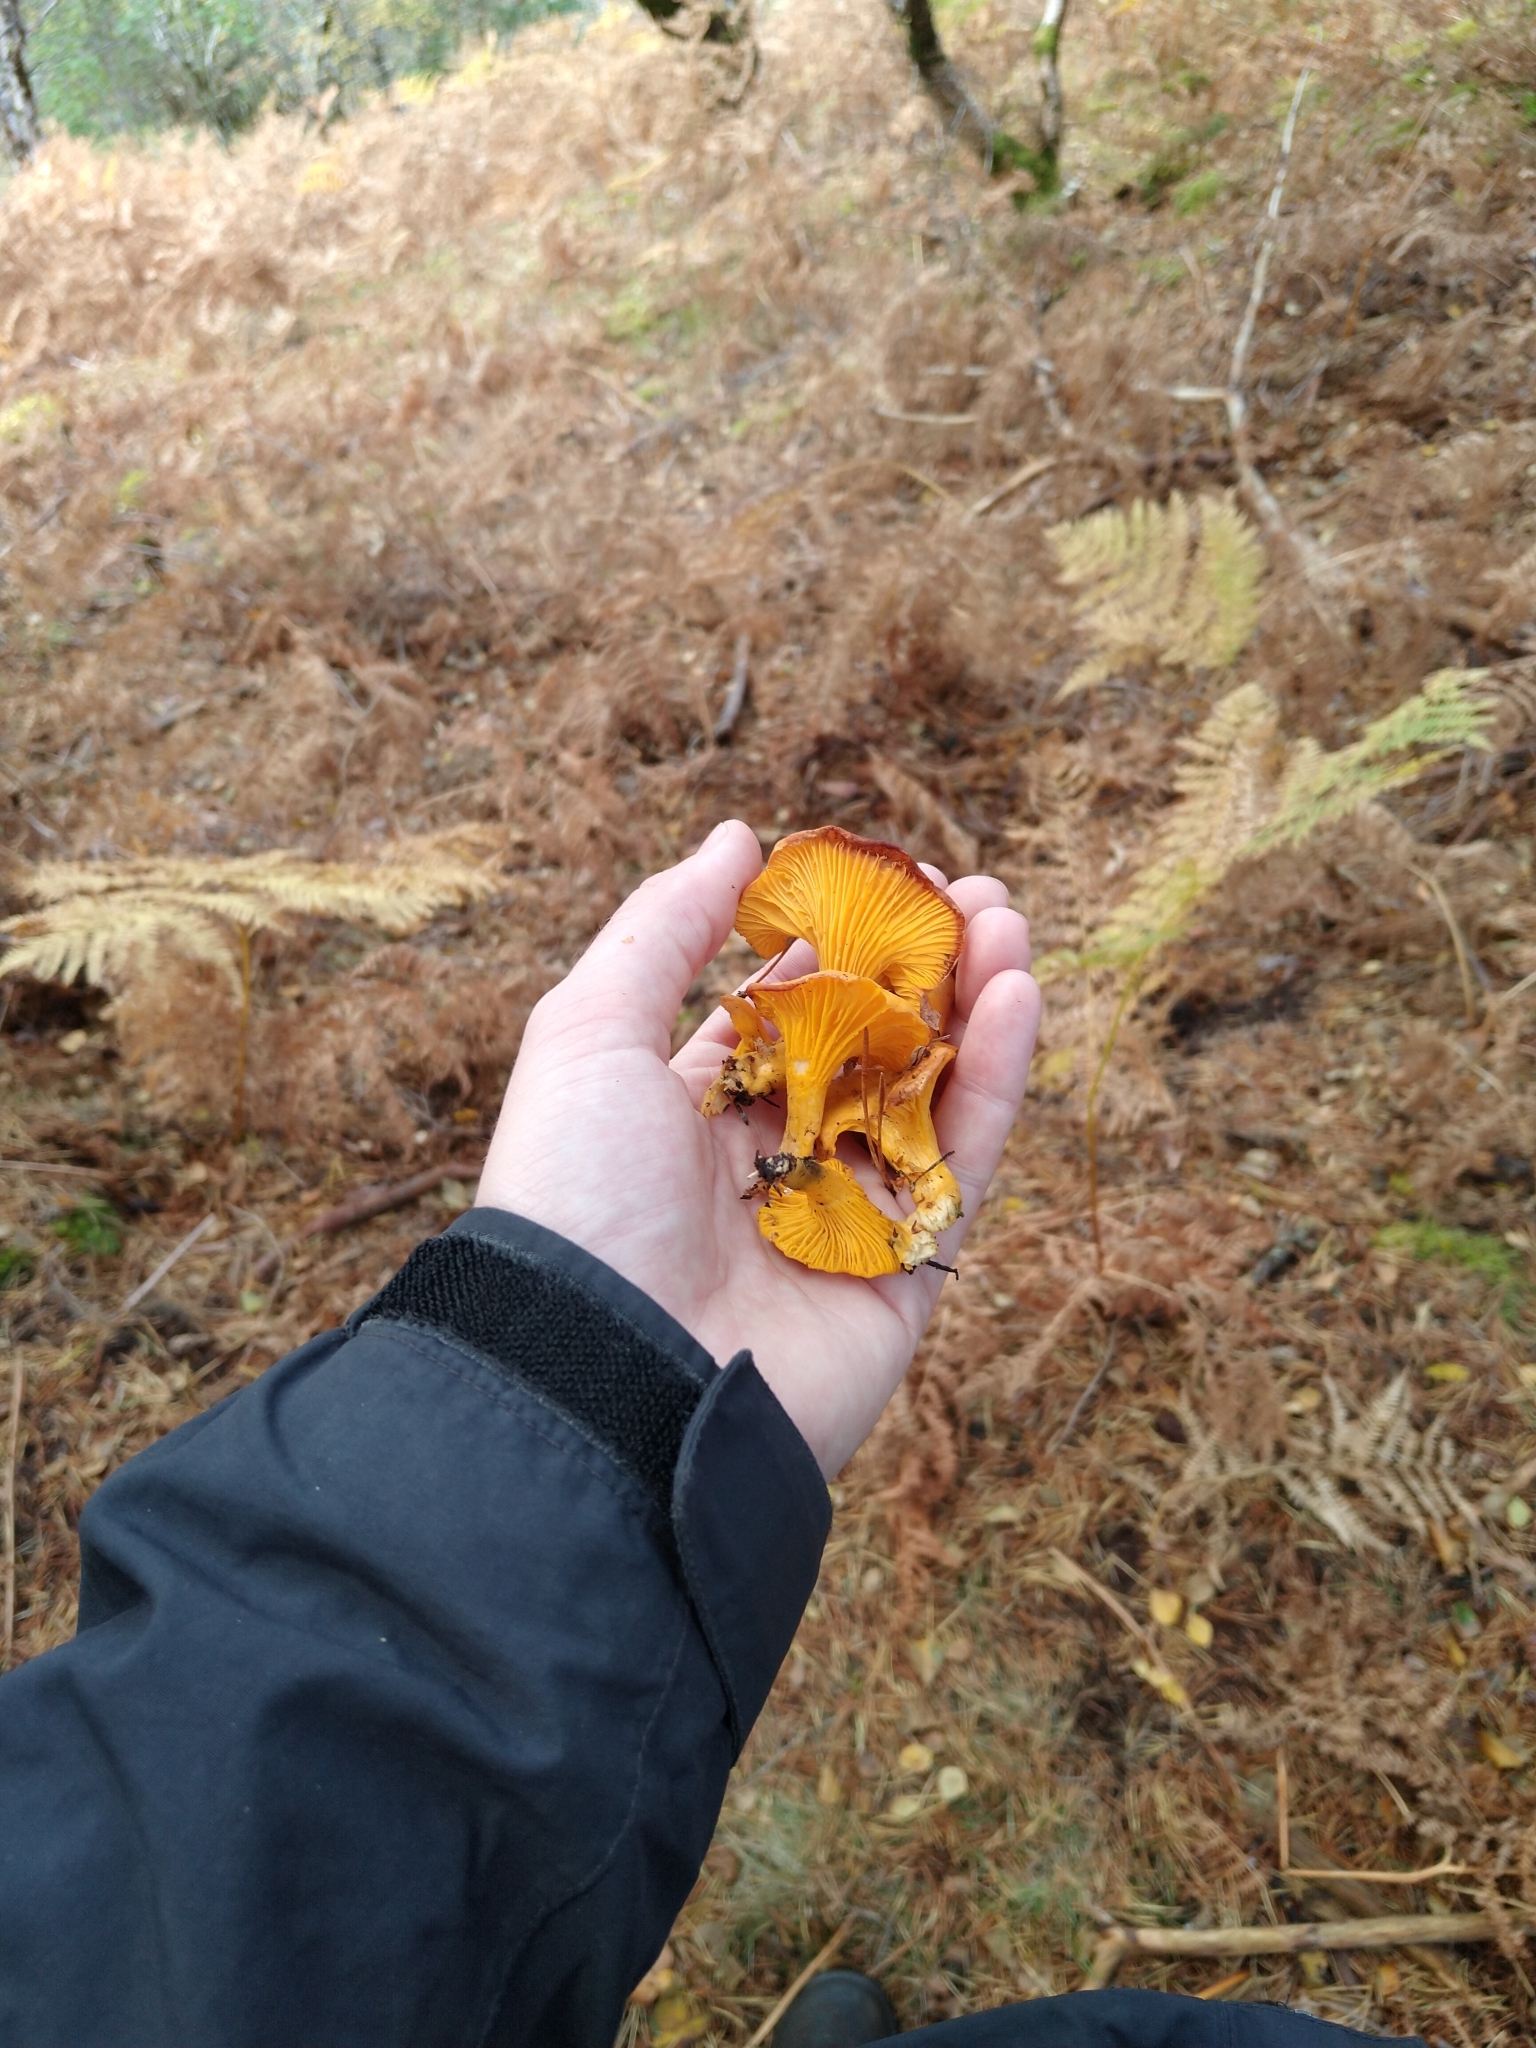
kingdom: Fungi
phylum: Basidiomycota
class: Agaricomycetes
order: Cantharellales
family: Hydnaceae
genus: Cantharellus
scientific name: Cantharellus cibarius
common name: Chanterelle
